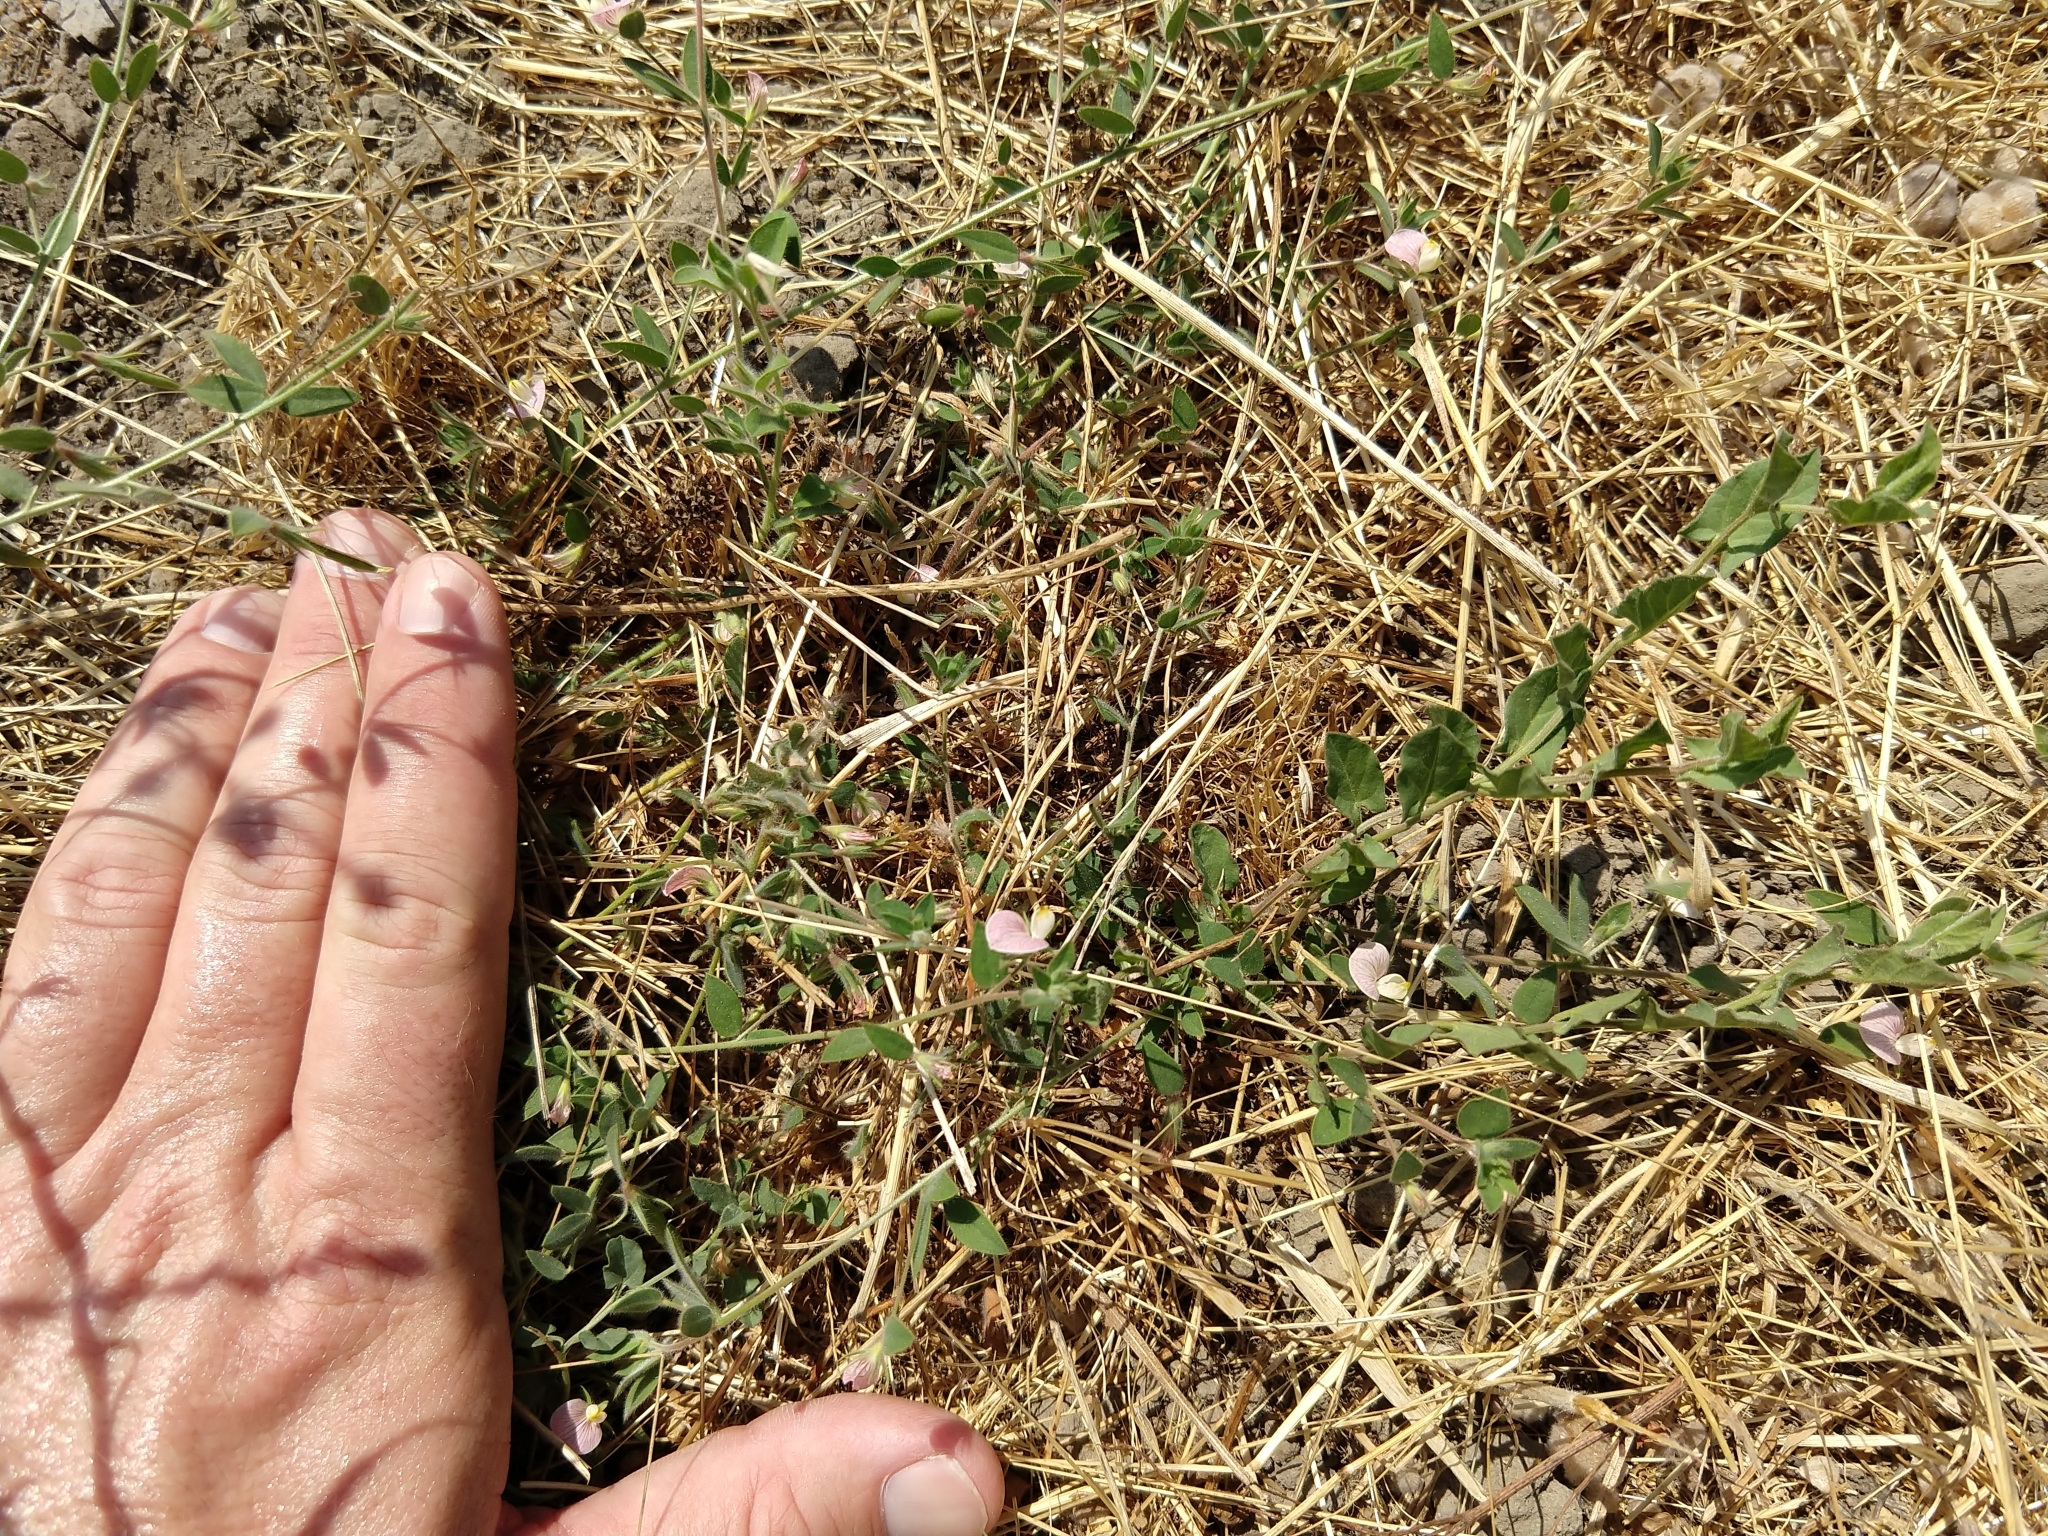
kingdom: Plantae
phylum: Tracheophyta
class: Magnoliopsida
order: Fabales
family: Fabaceae
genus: Acmispon
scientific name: Acmispon americanus
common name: American bird's-foot trefoil
